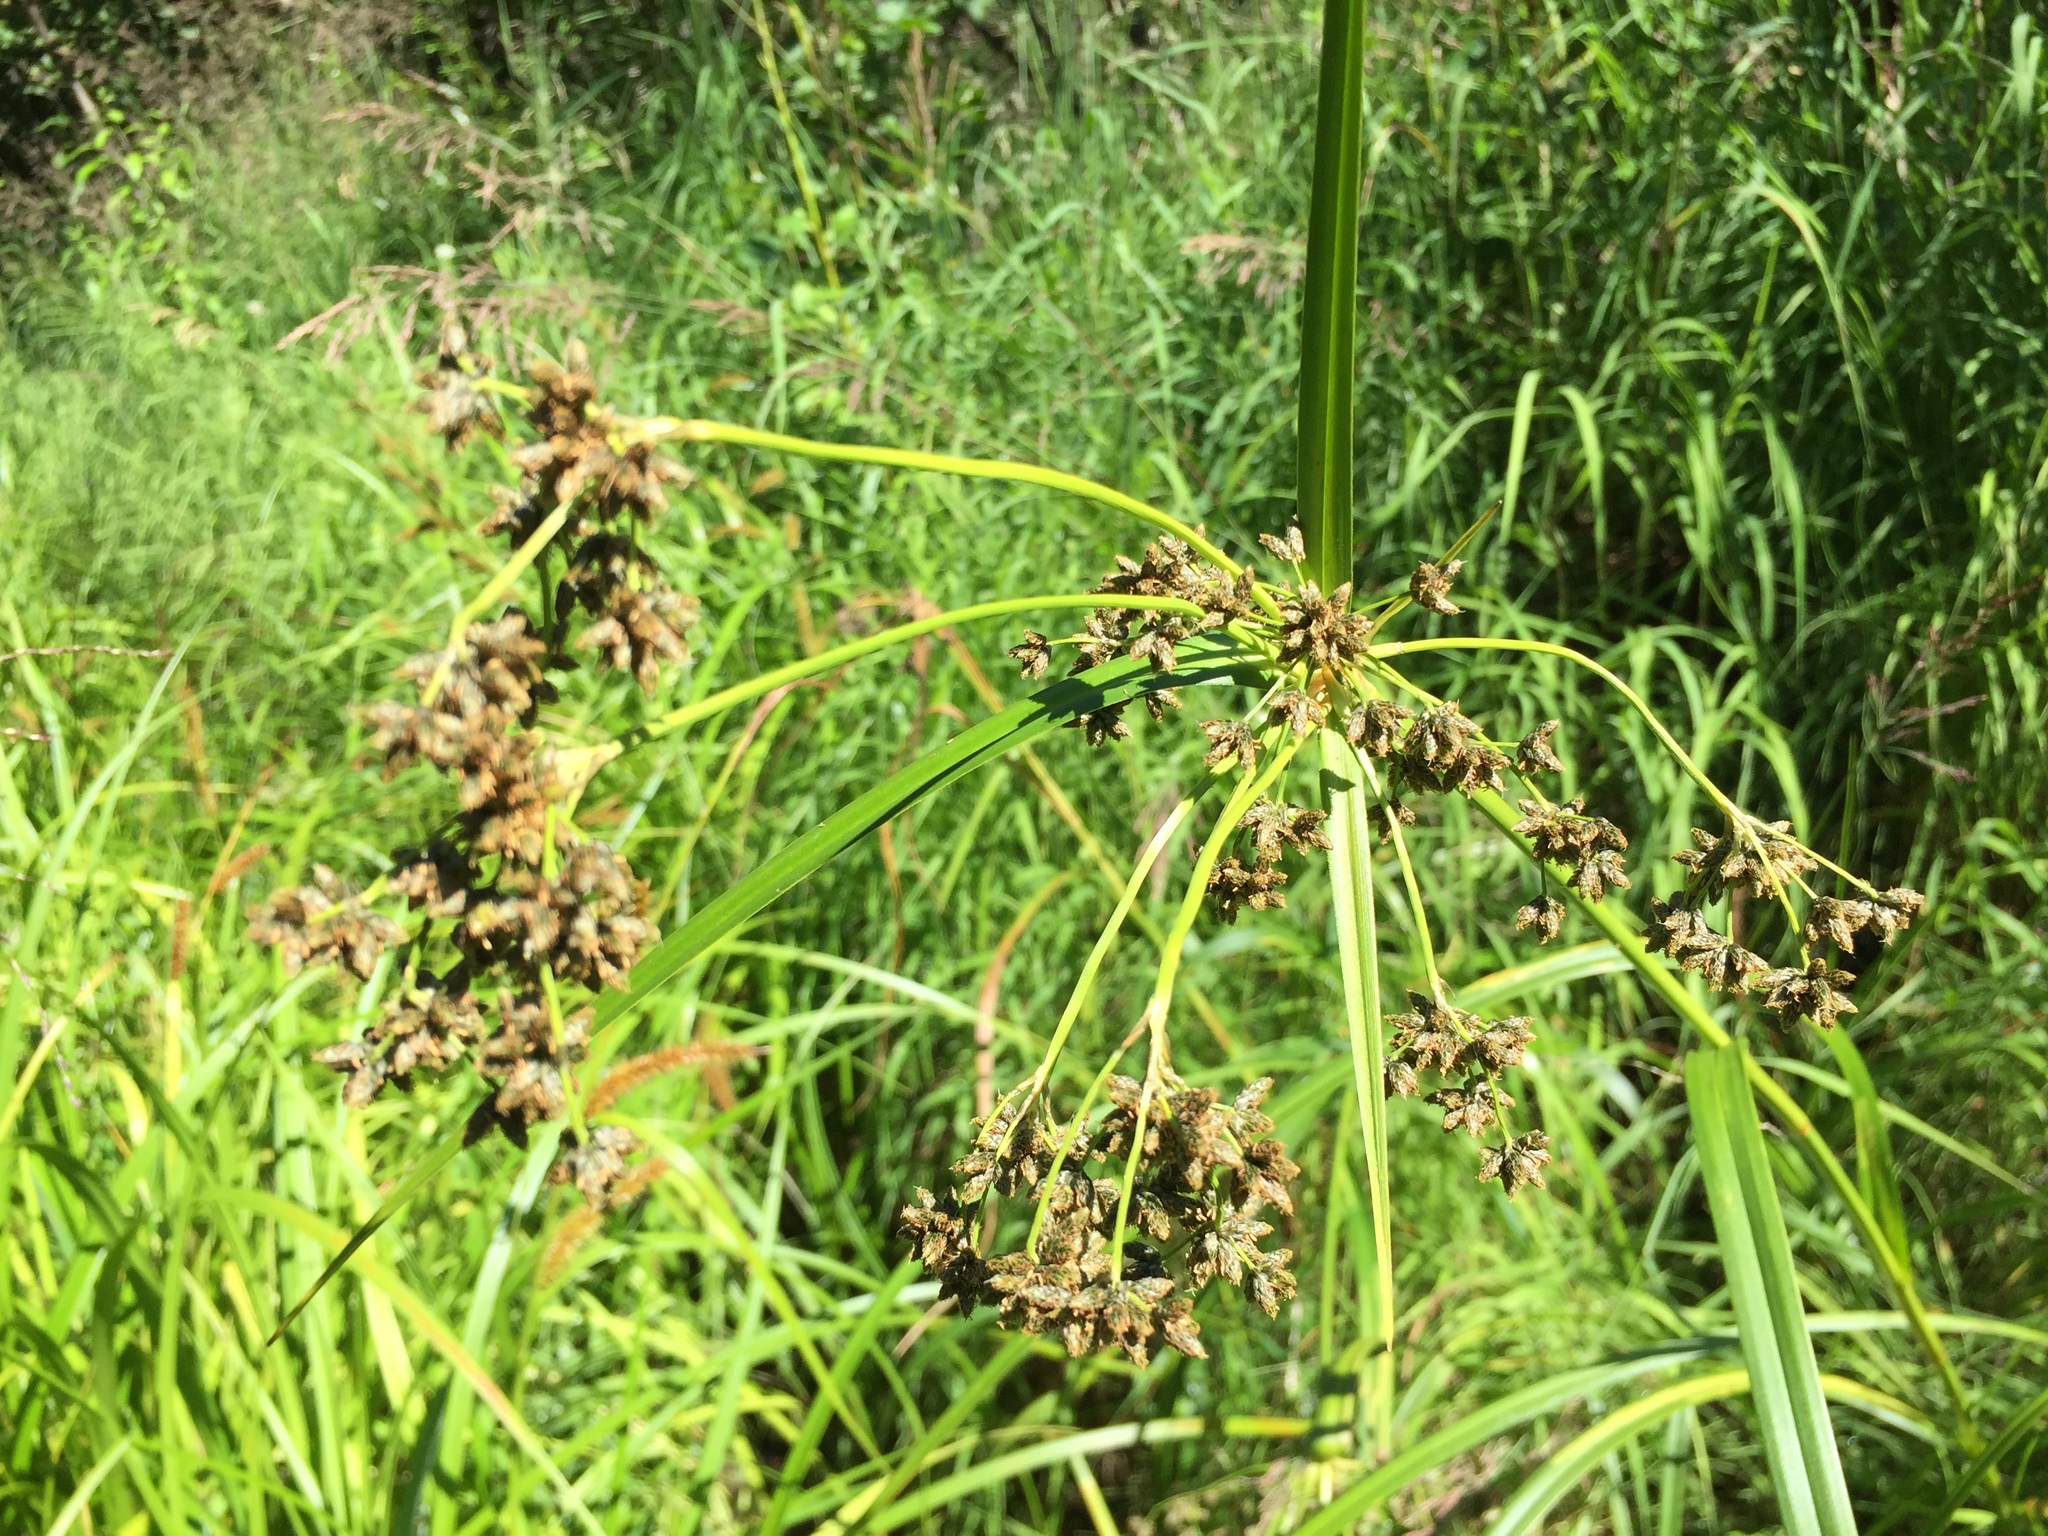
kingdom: Plantae
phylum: Tracheophyta
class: Liliopsida
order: Poales
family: Cyperaceae
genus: Scirpus
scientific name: Scirpus microcarpus
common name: Panicled bulrush
